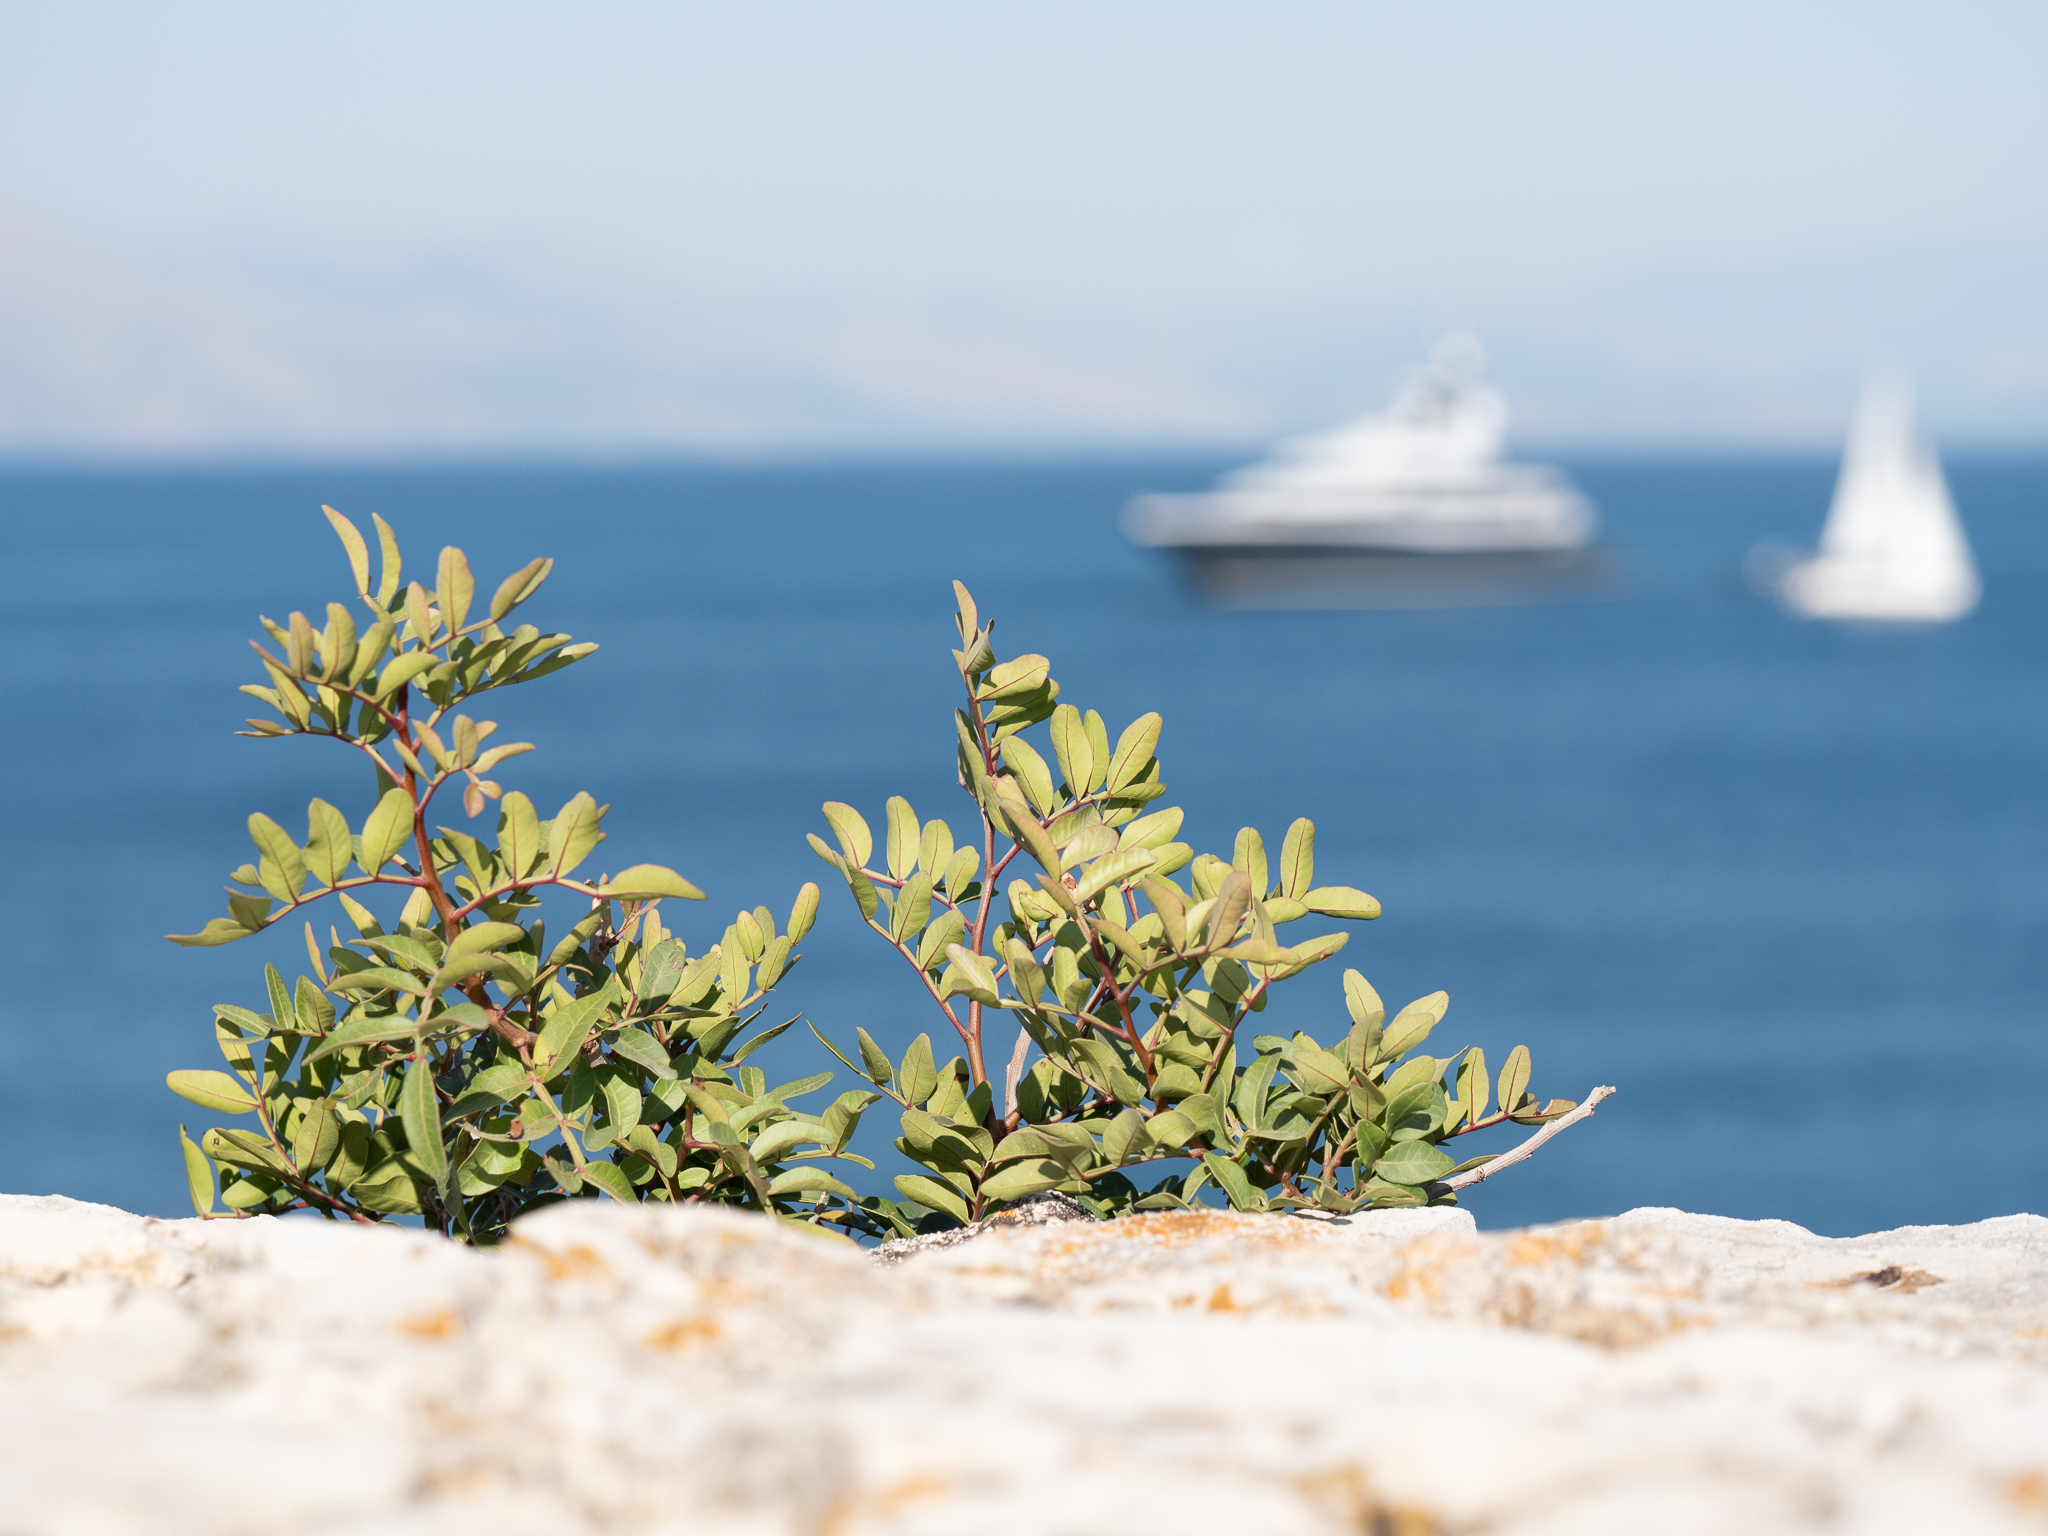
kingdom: Plantae
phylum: Tracheophyta
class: Magnoliopsida
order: Sapindales
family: Anacardiaceae
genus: Pistacia
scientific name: Pistacia lentiscus
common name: Lentisk
